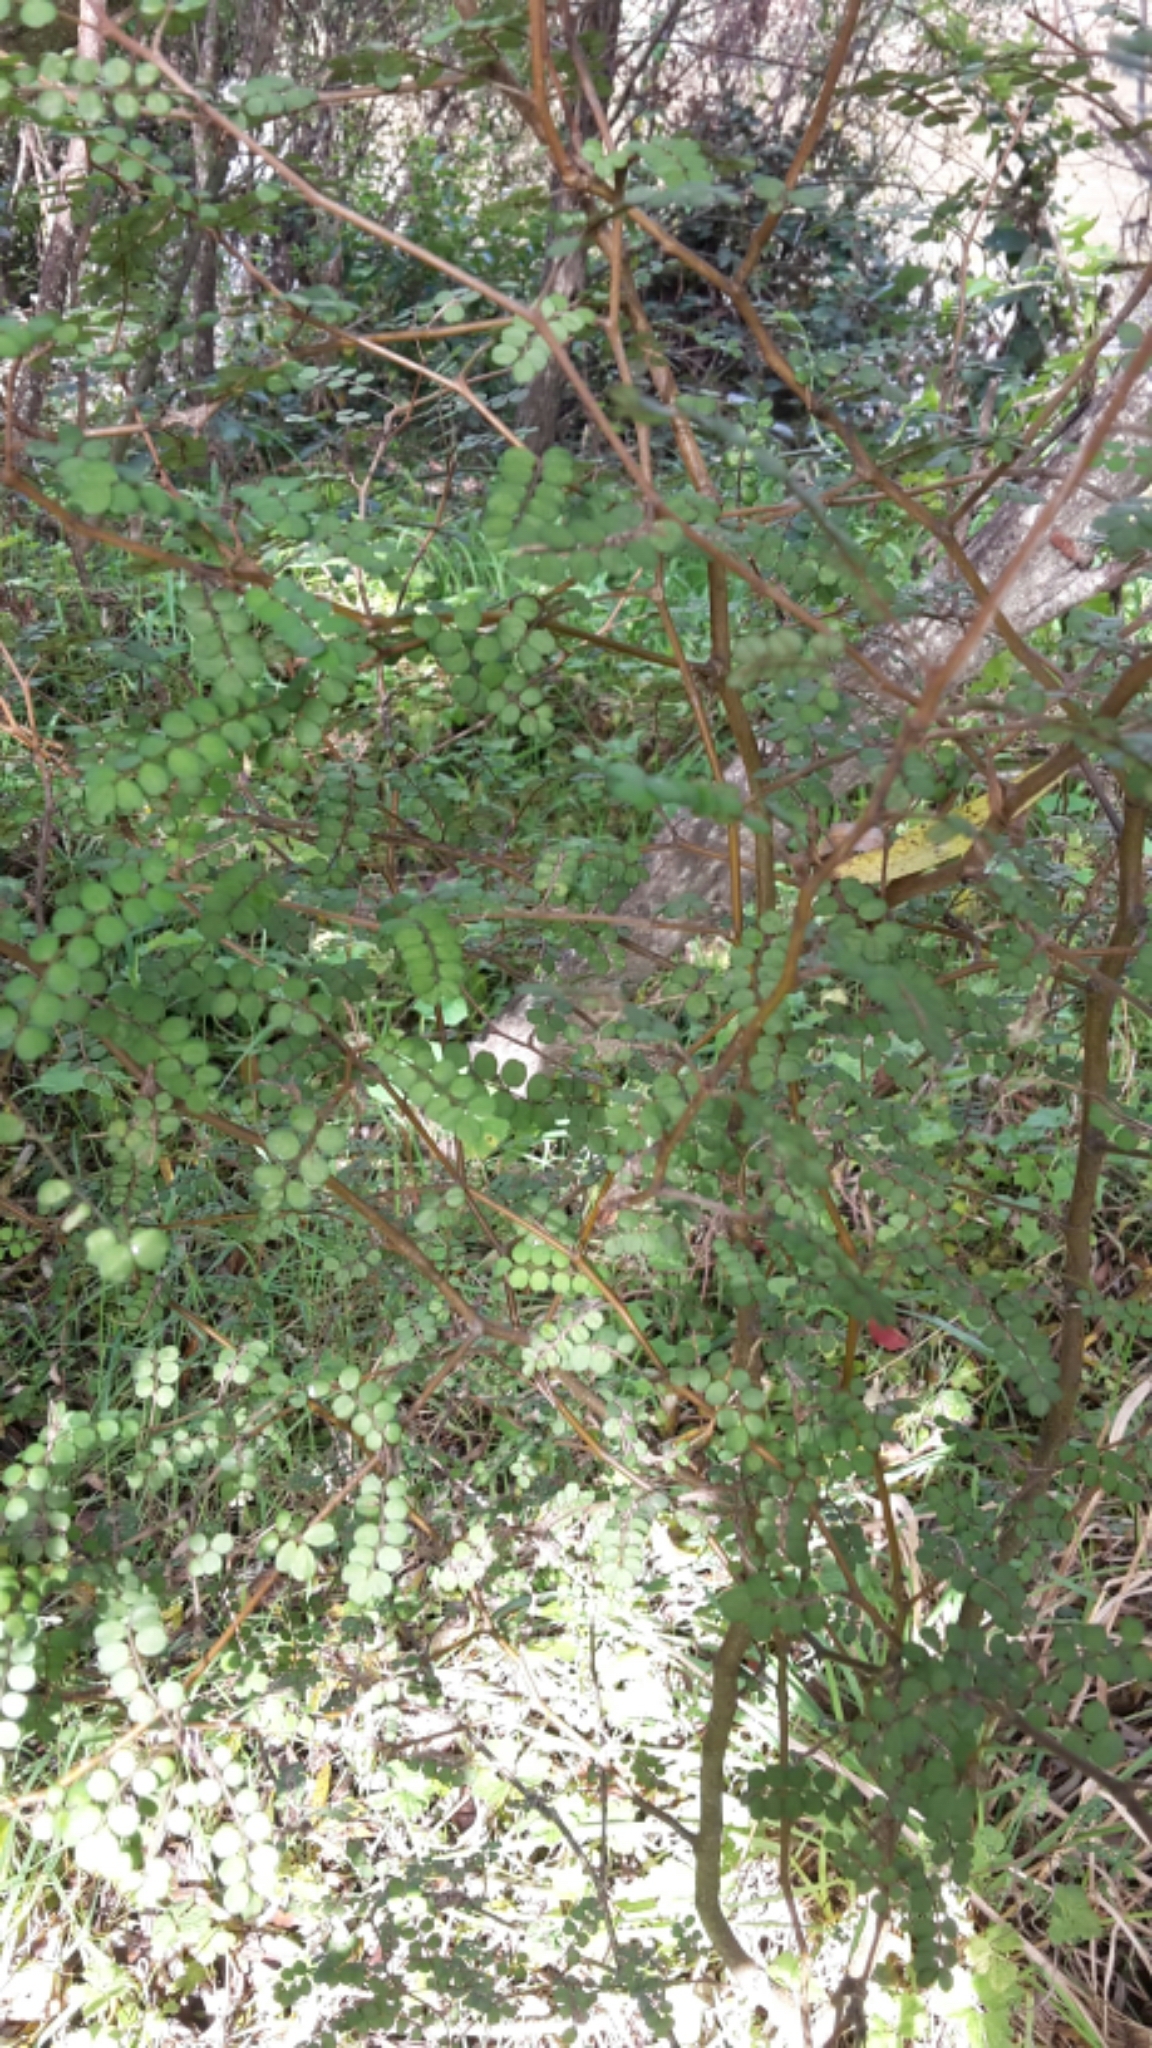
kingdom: Plantae
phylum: Tracheophyta
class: Magnoliopsida
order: Fabales
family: Fabaceae
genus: Sophora
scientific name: Sophora microphylla
